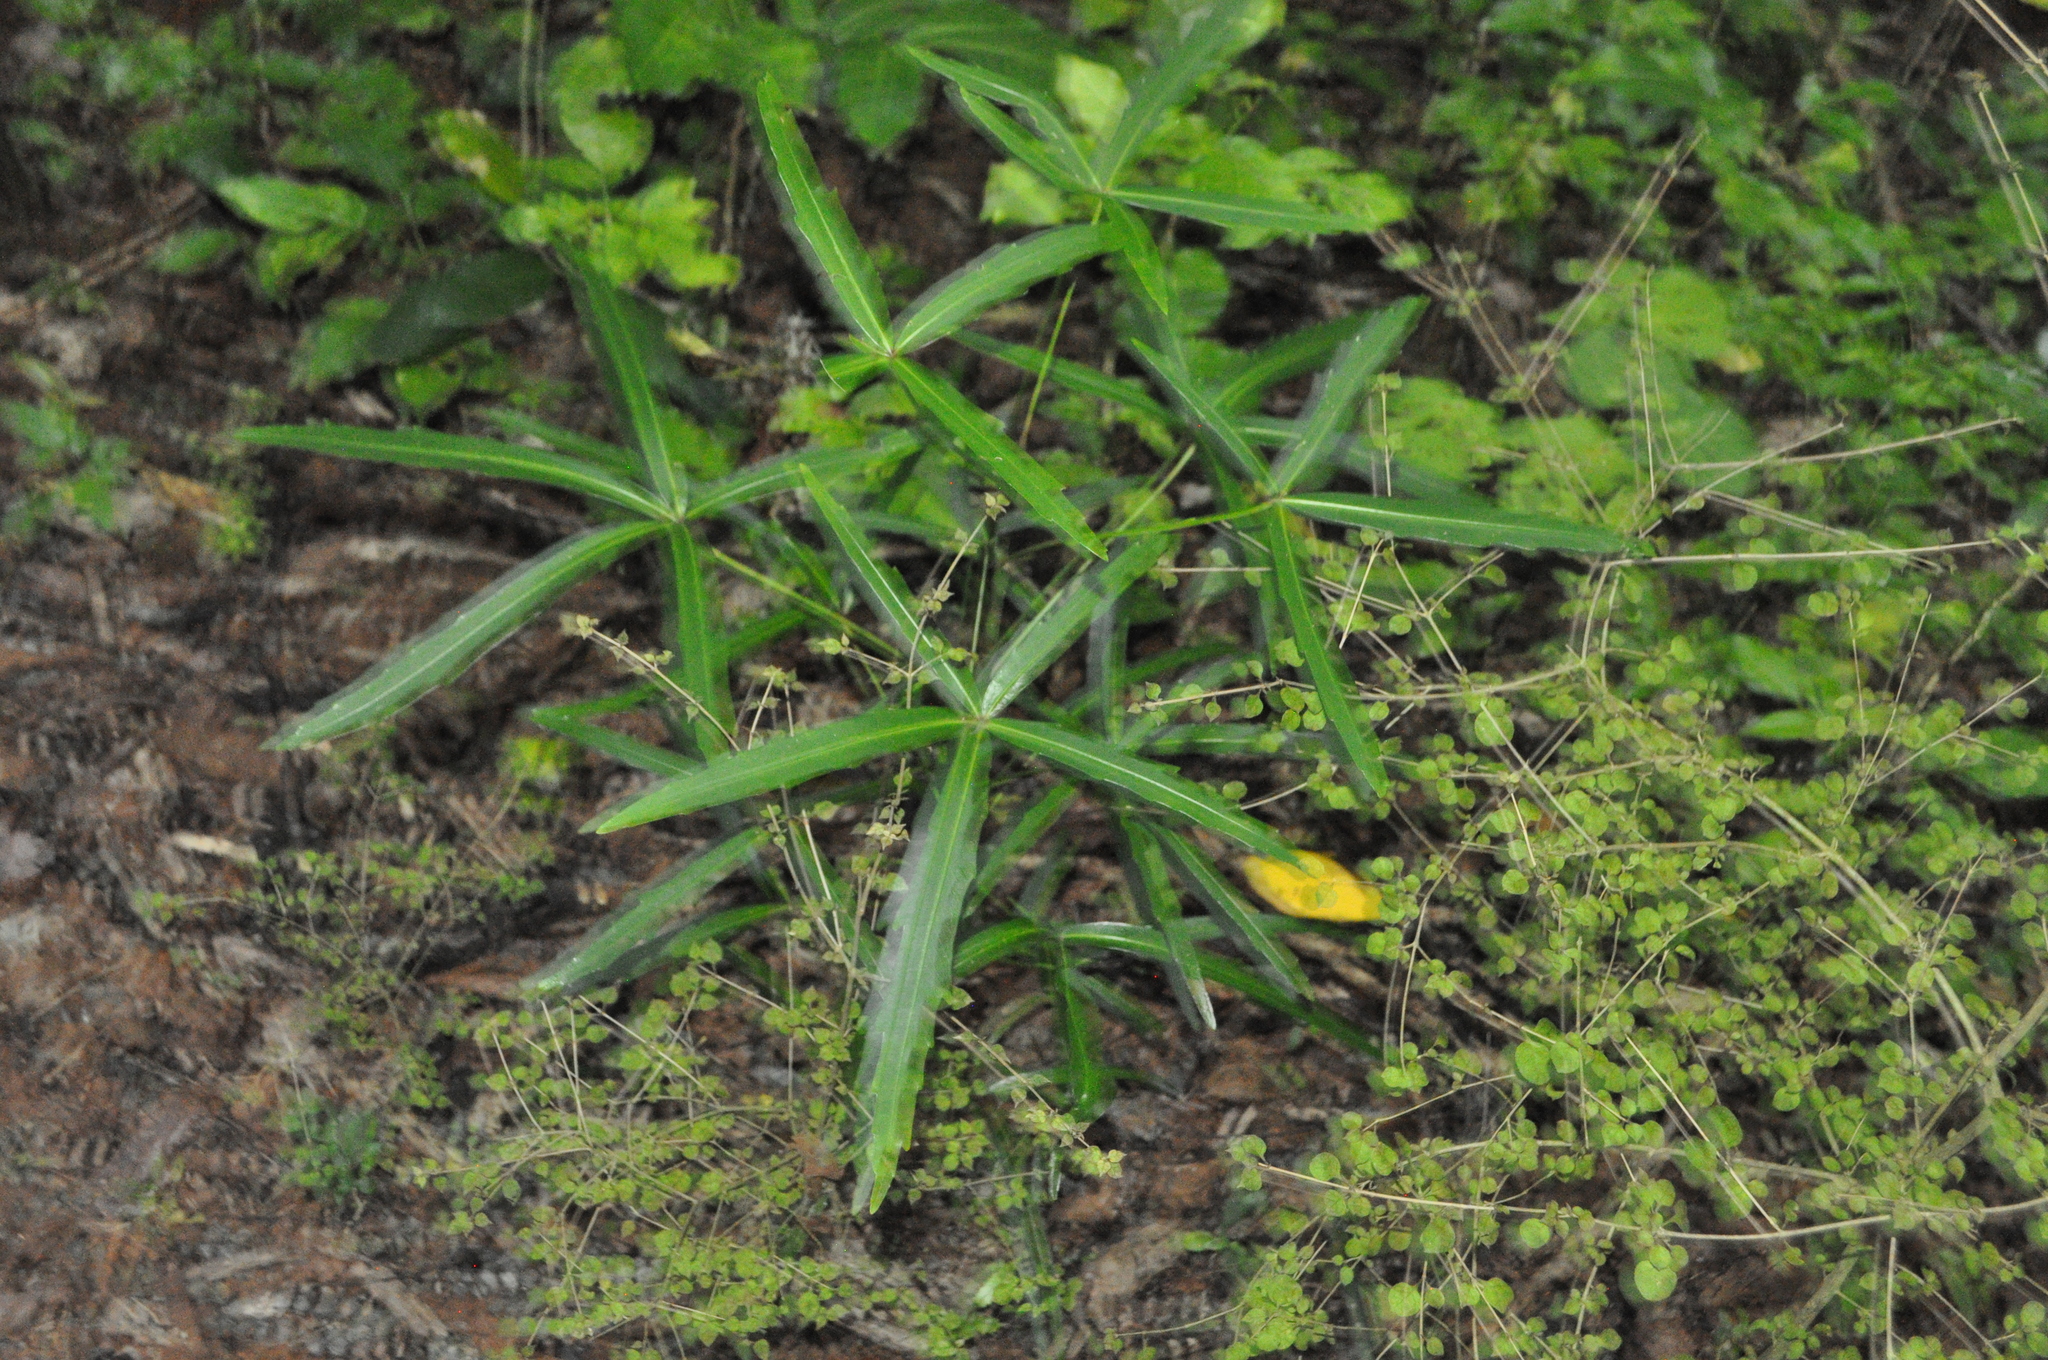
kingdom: Plantae
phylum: Tracheophyta
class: Magnoliopsida
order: Apiales
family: Araliaceae
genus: Pseudopanax
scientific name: Pseudopanax
